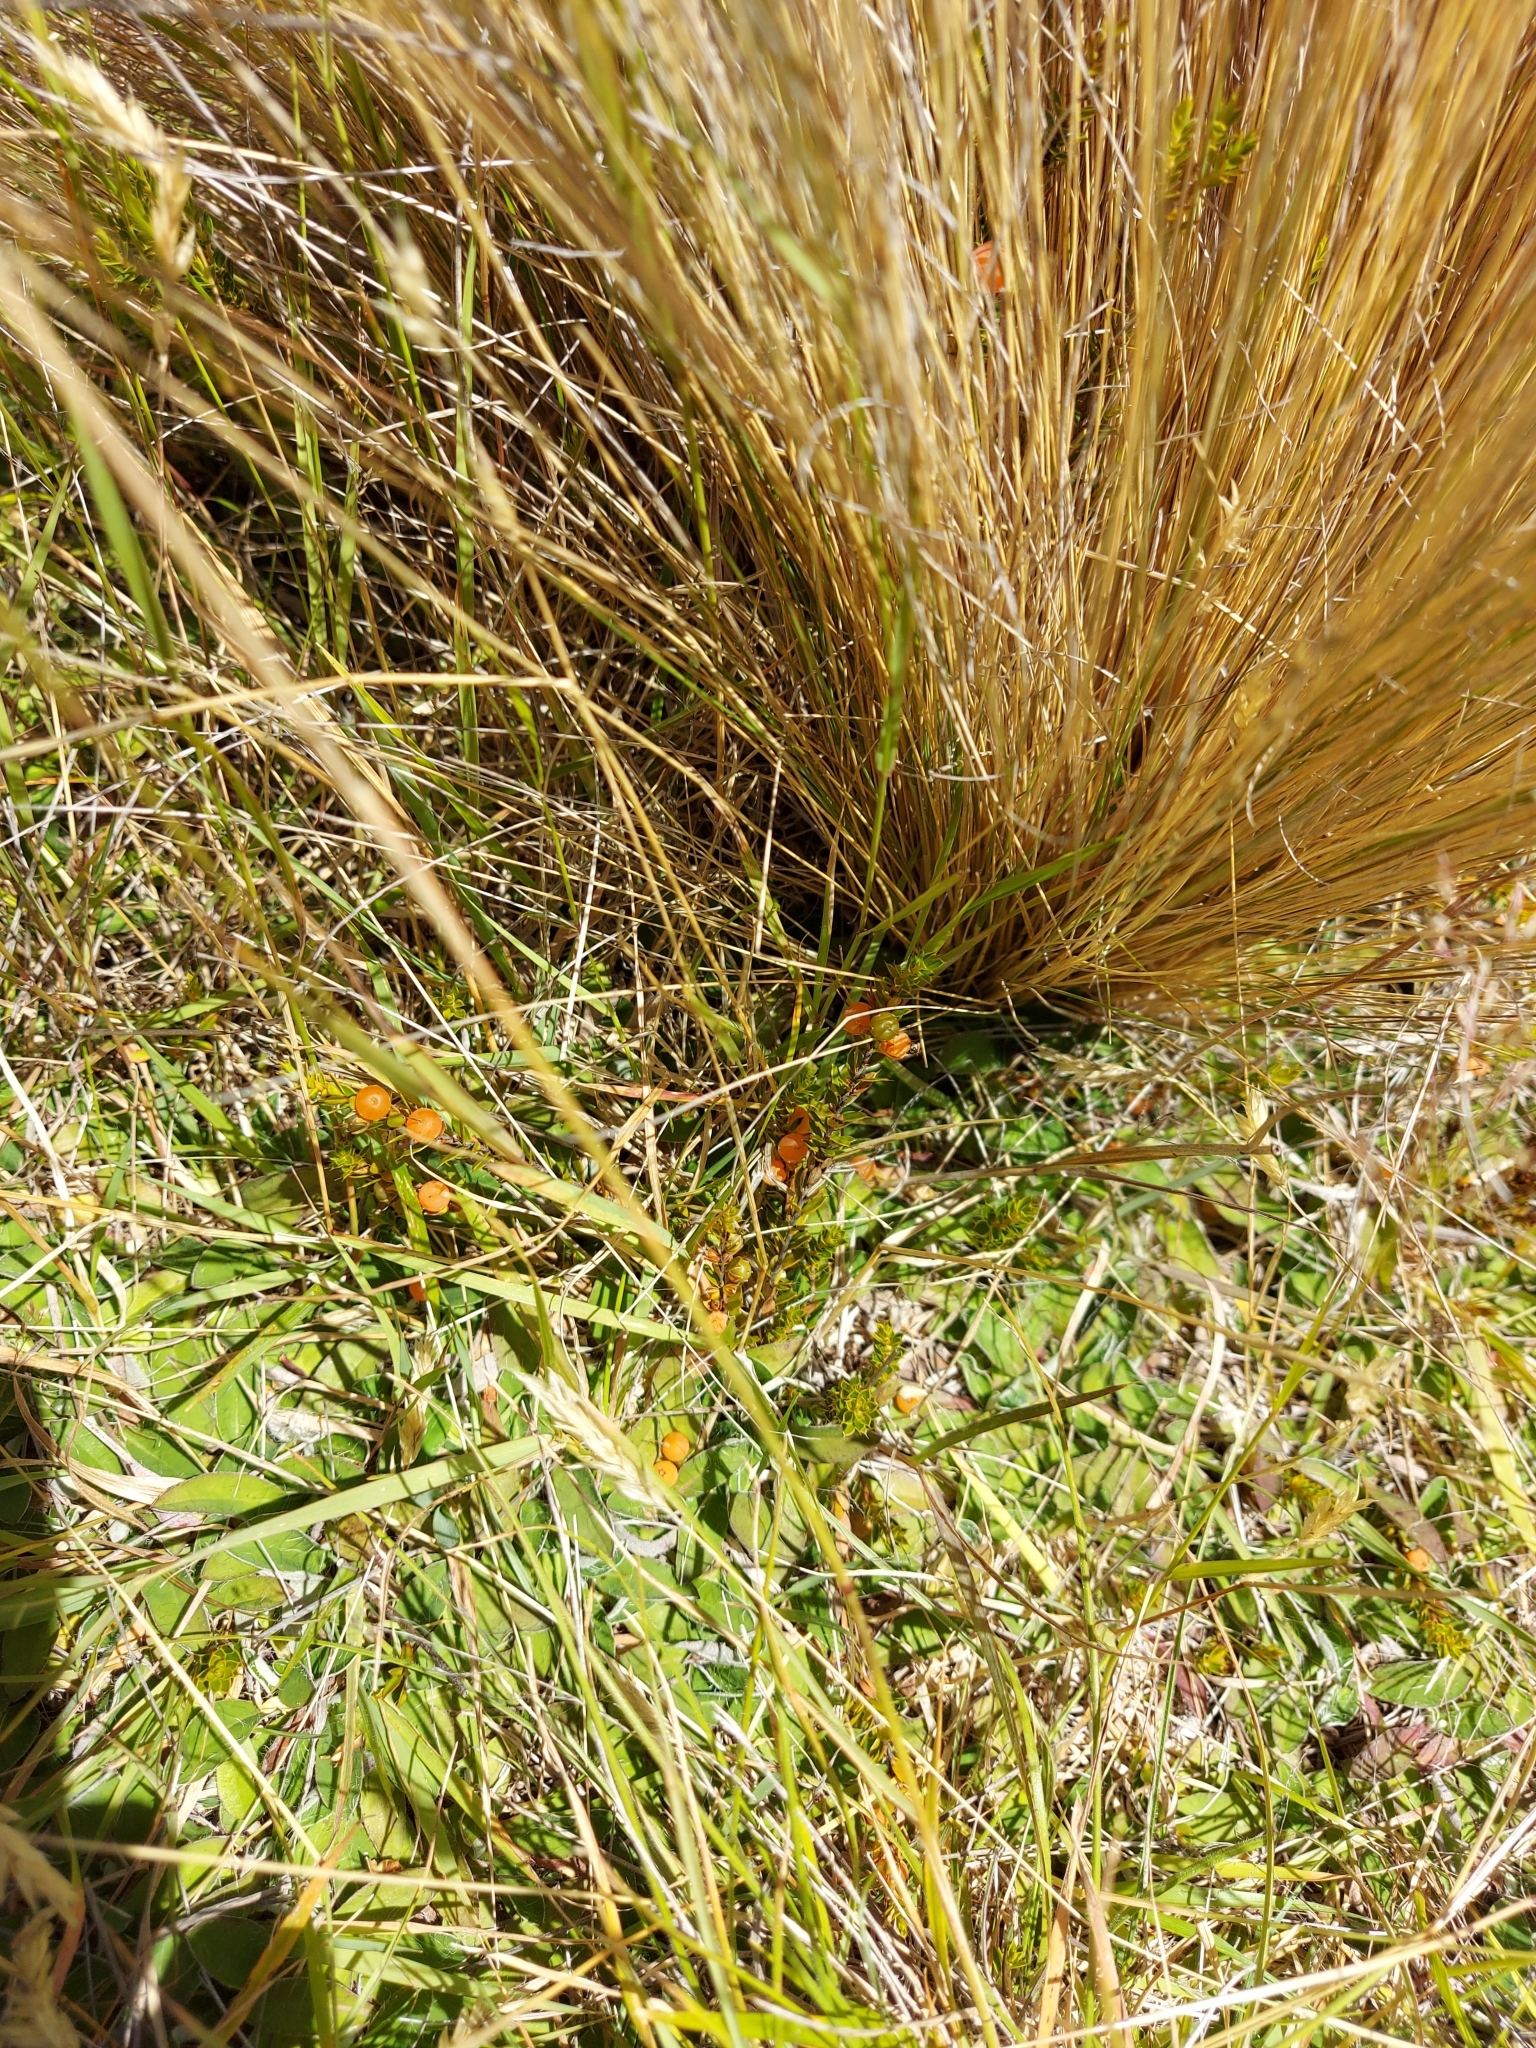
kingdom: Plantae
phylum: Tracheophyta
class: Magnoliopsida
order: Ericales
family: Ericaceae
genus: Styphelia
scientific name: Styphelia nesophila
